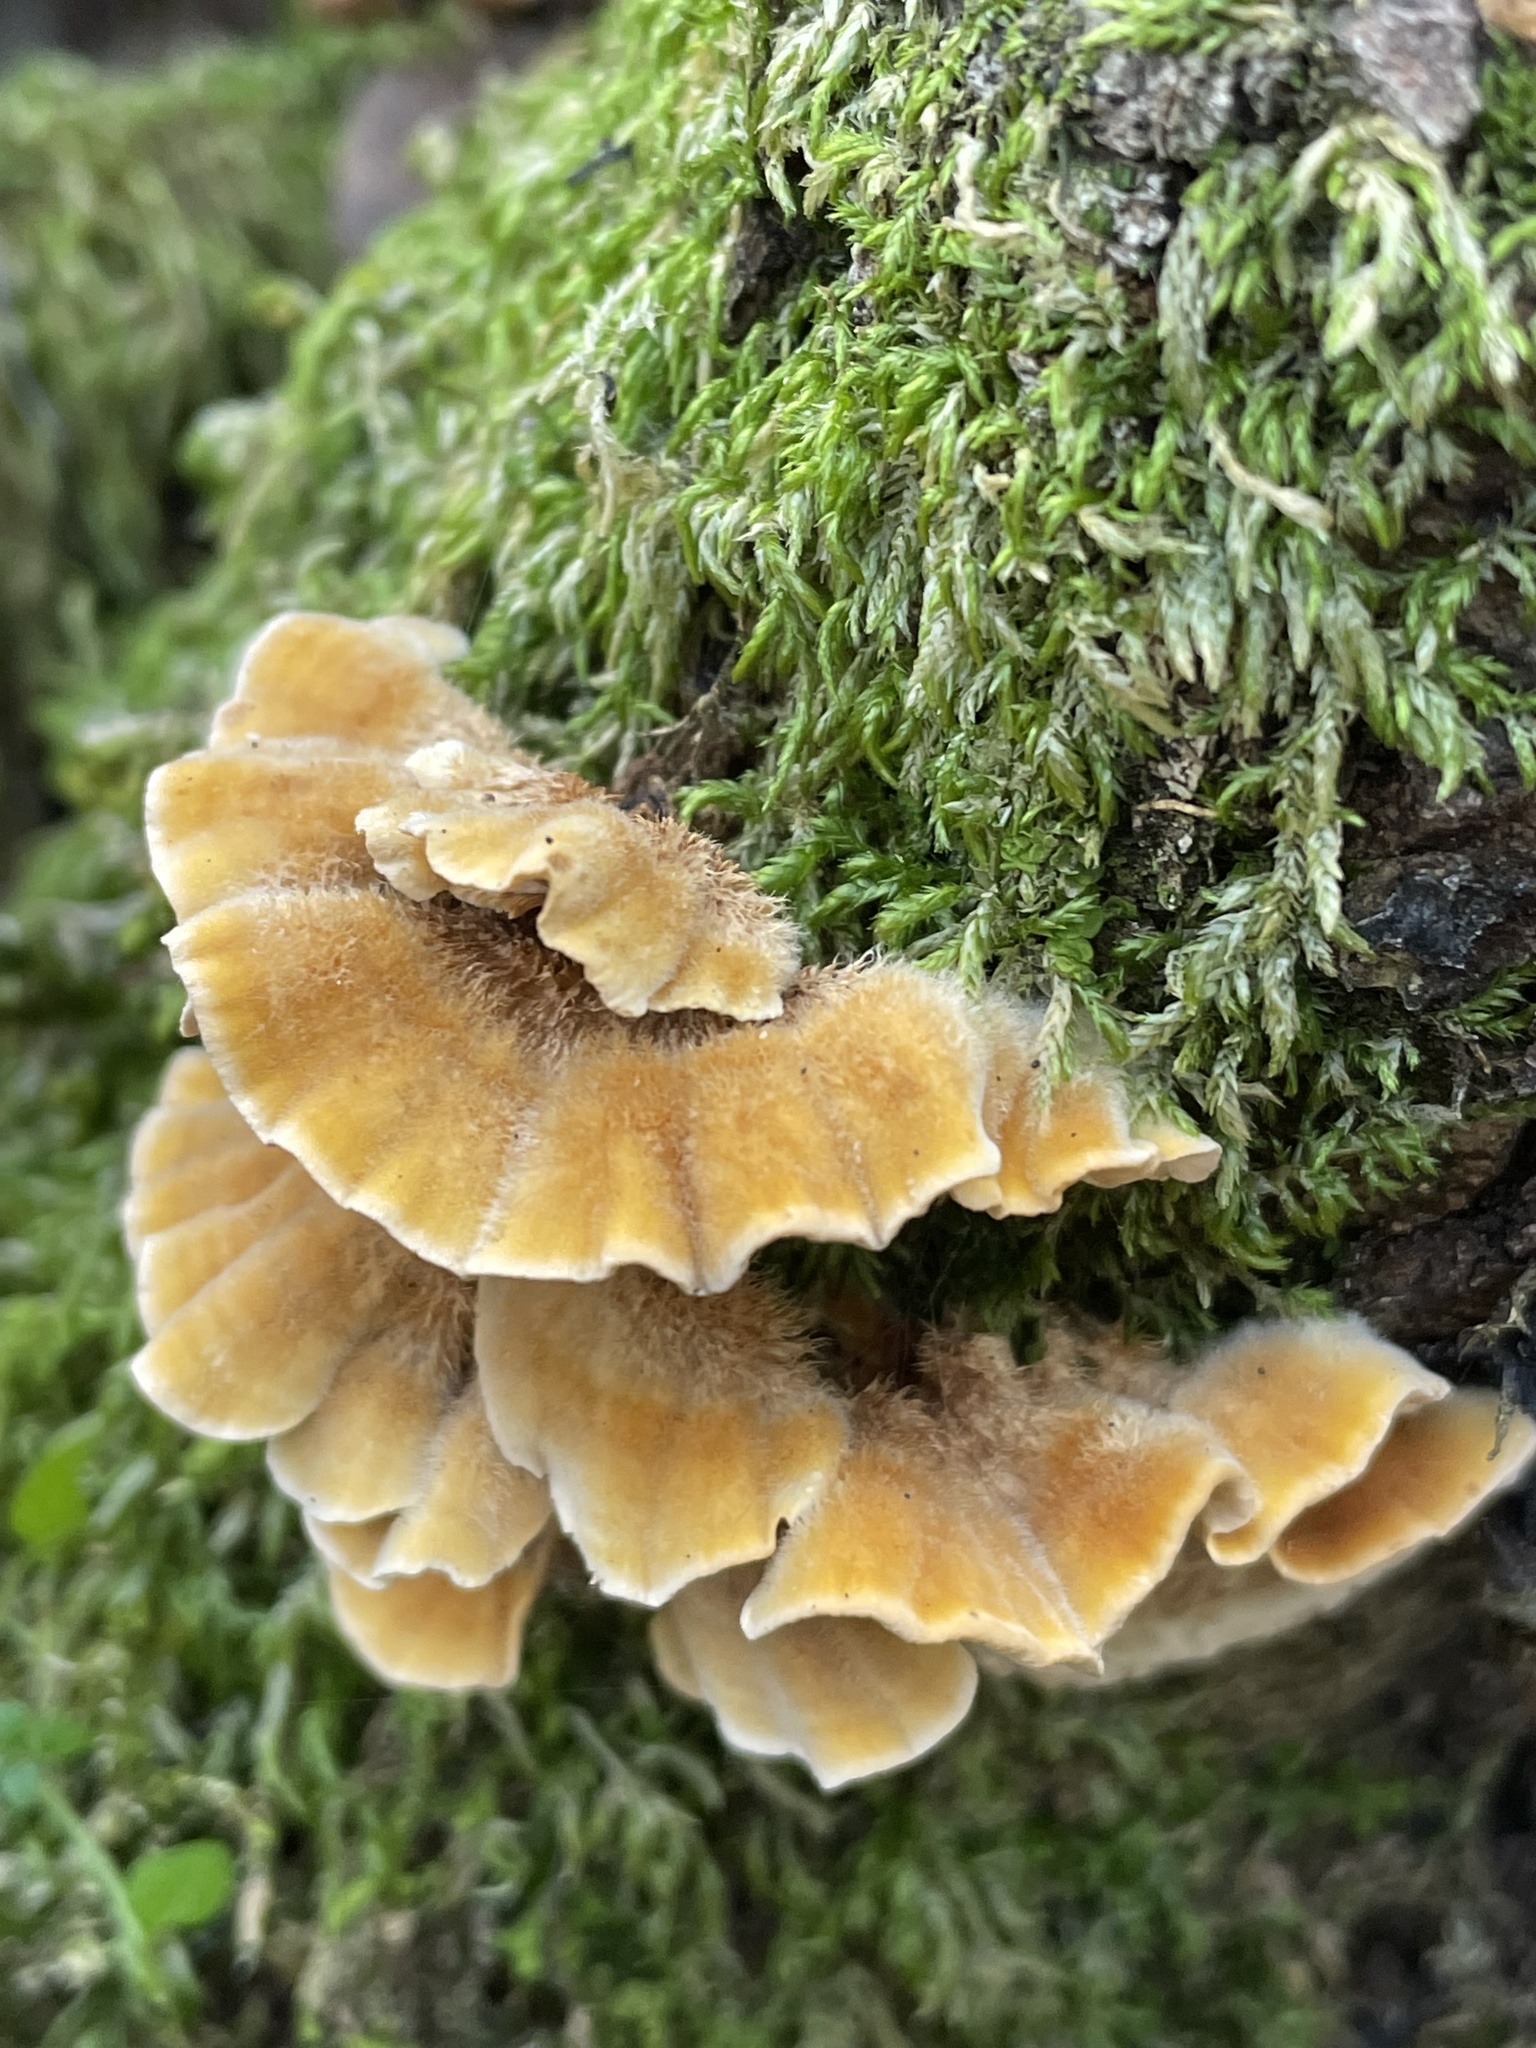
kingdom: Fungi
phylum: Basidiomycota
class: Agaricomycetes
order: Russulales
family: Stereaceae
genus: Stereum
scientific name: Stereum hirsutum
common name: Hairy curtain crust
